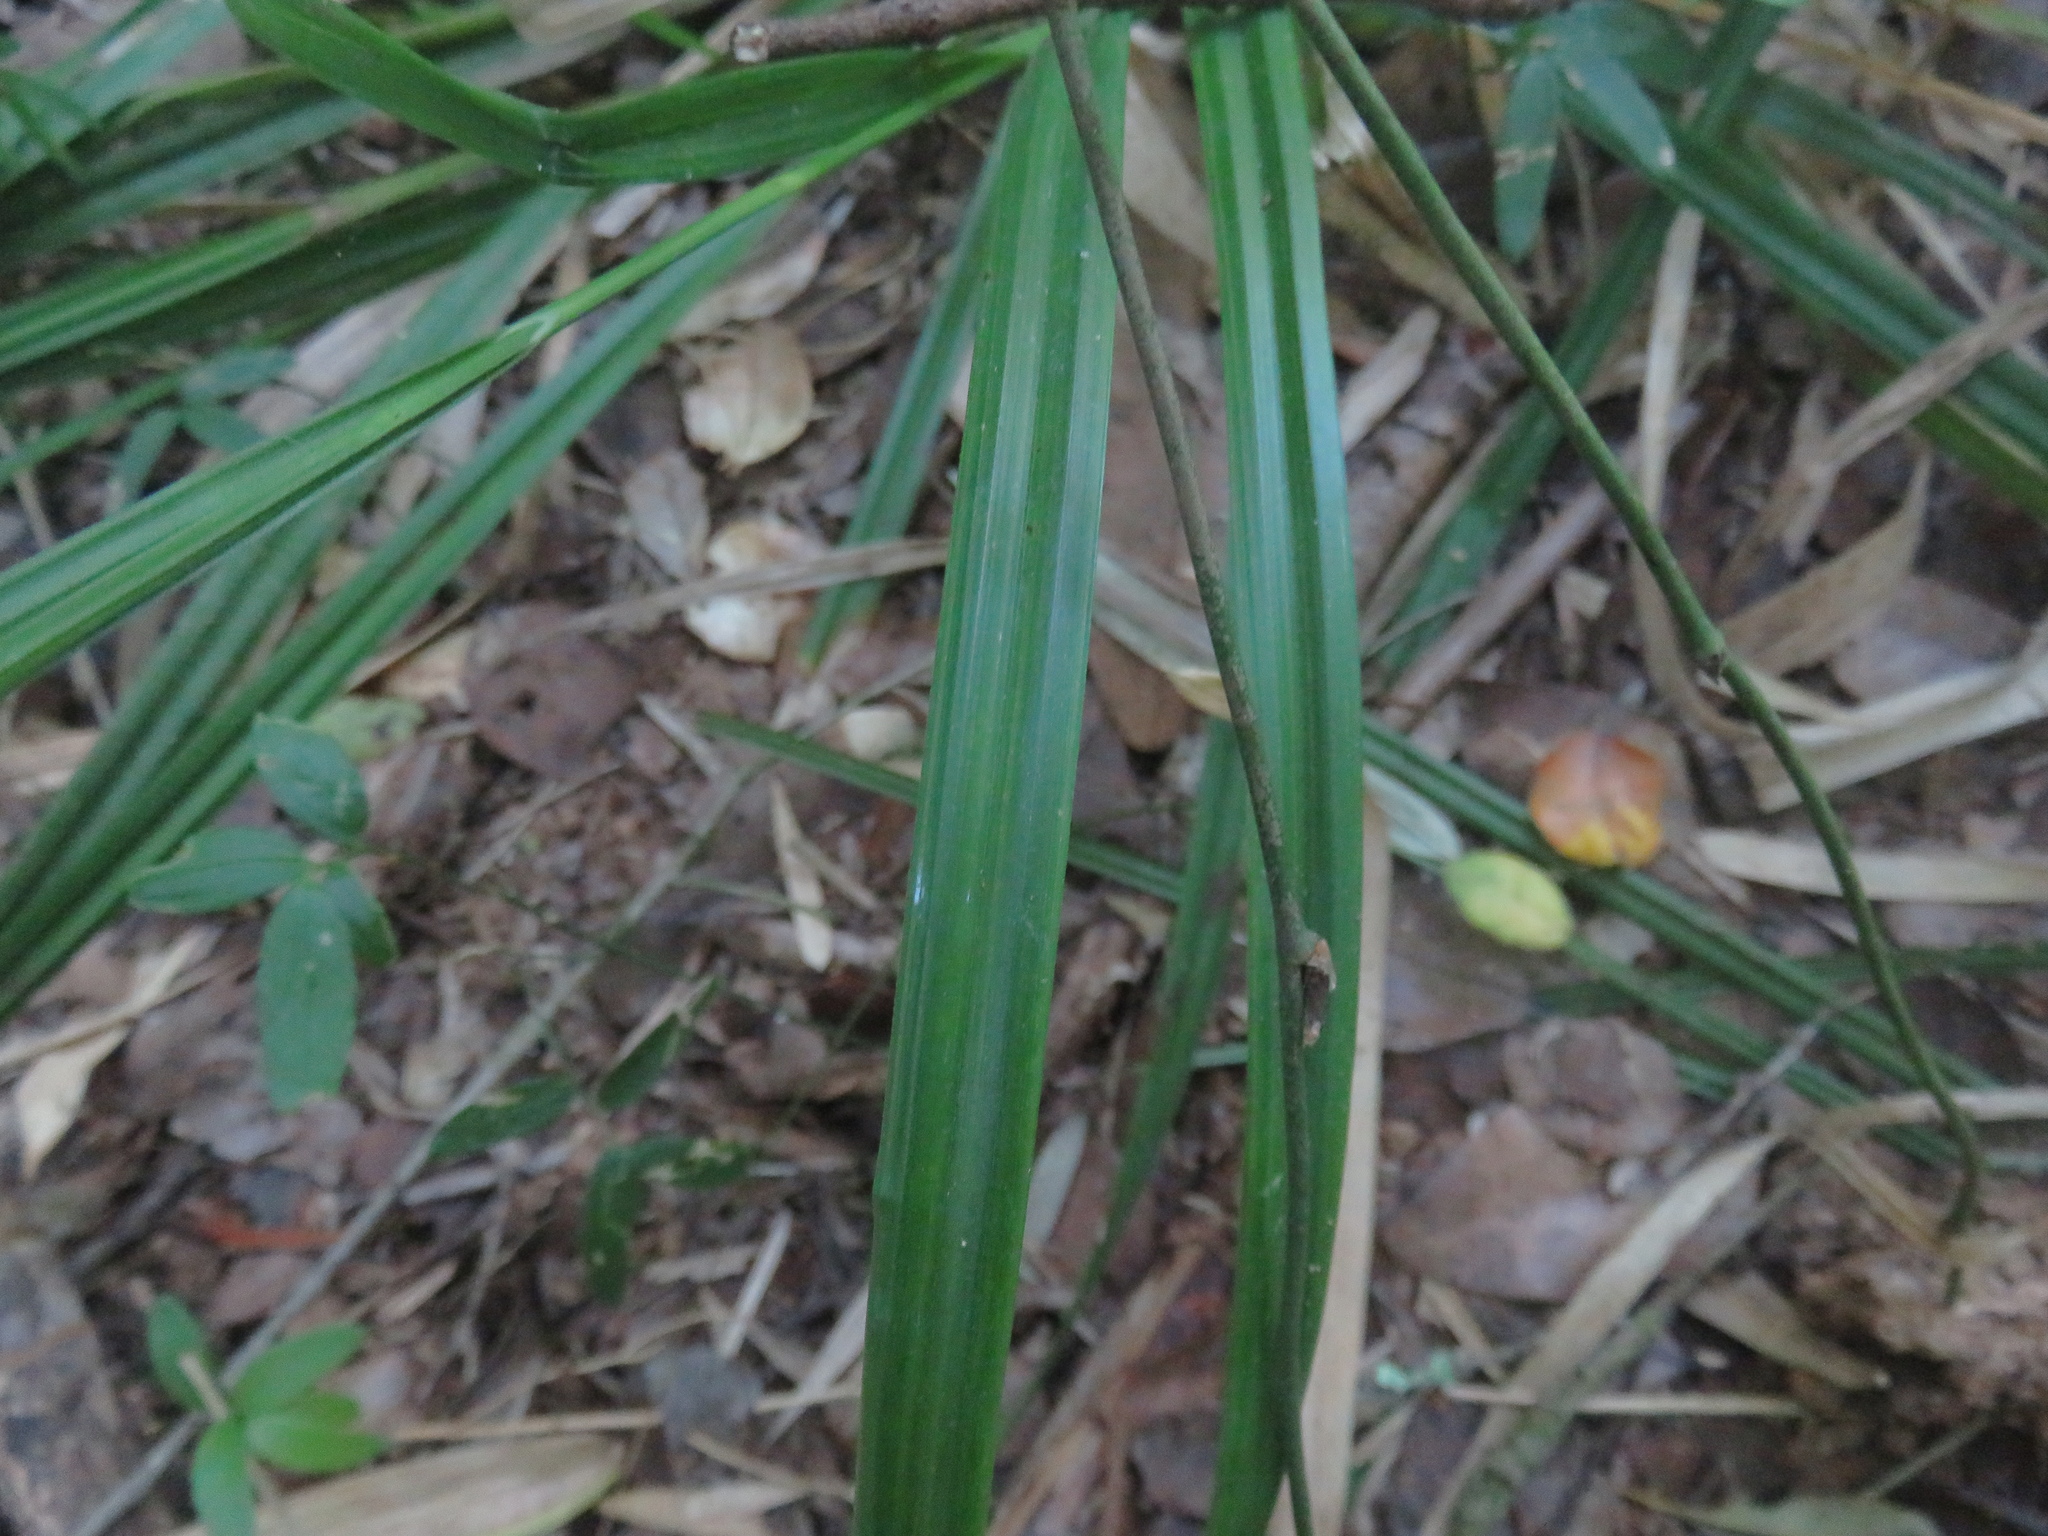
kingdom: Plantae
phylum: Tracheophyta
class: Liliopsida
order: Poales
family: Cyperaceae
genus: Carex
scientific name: Carex erinacea
